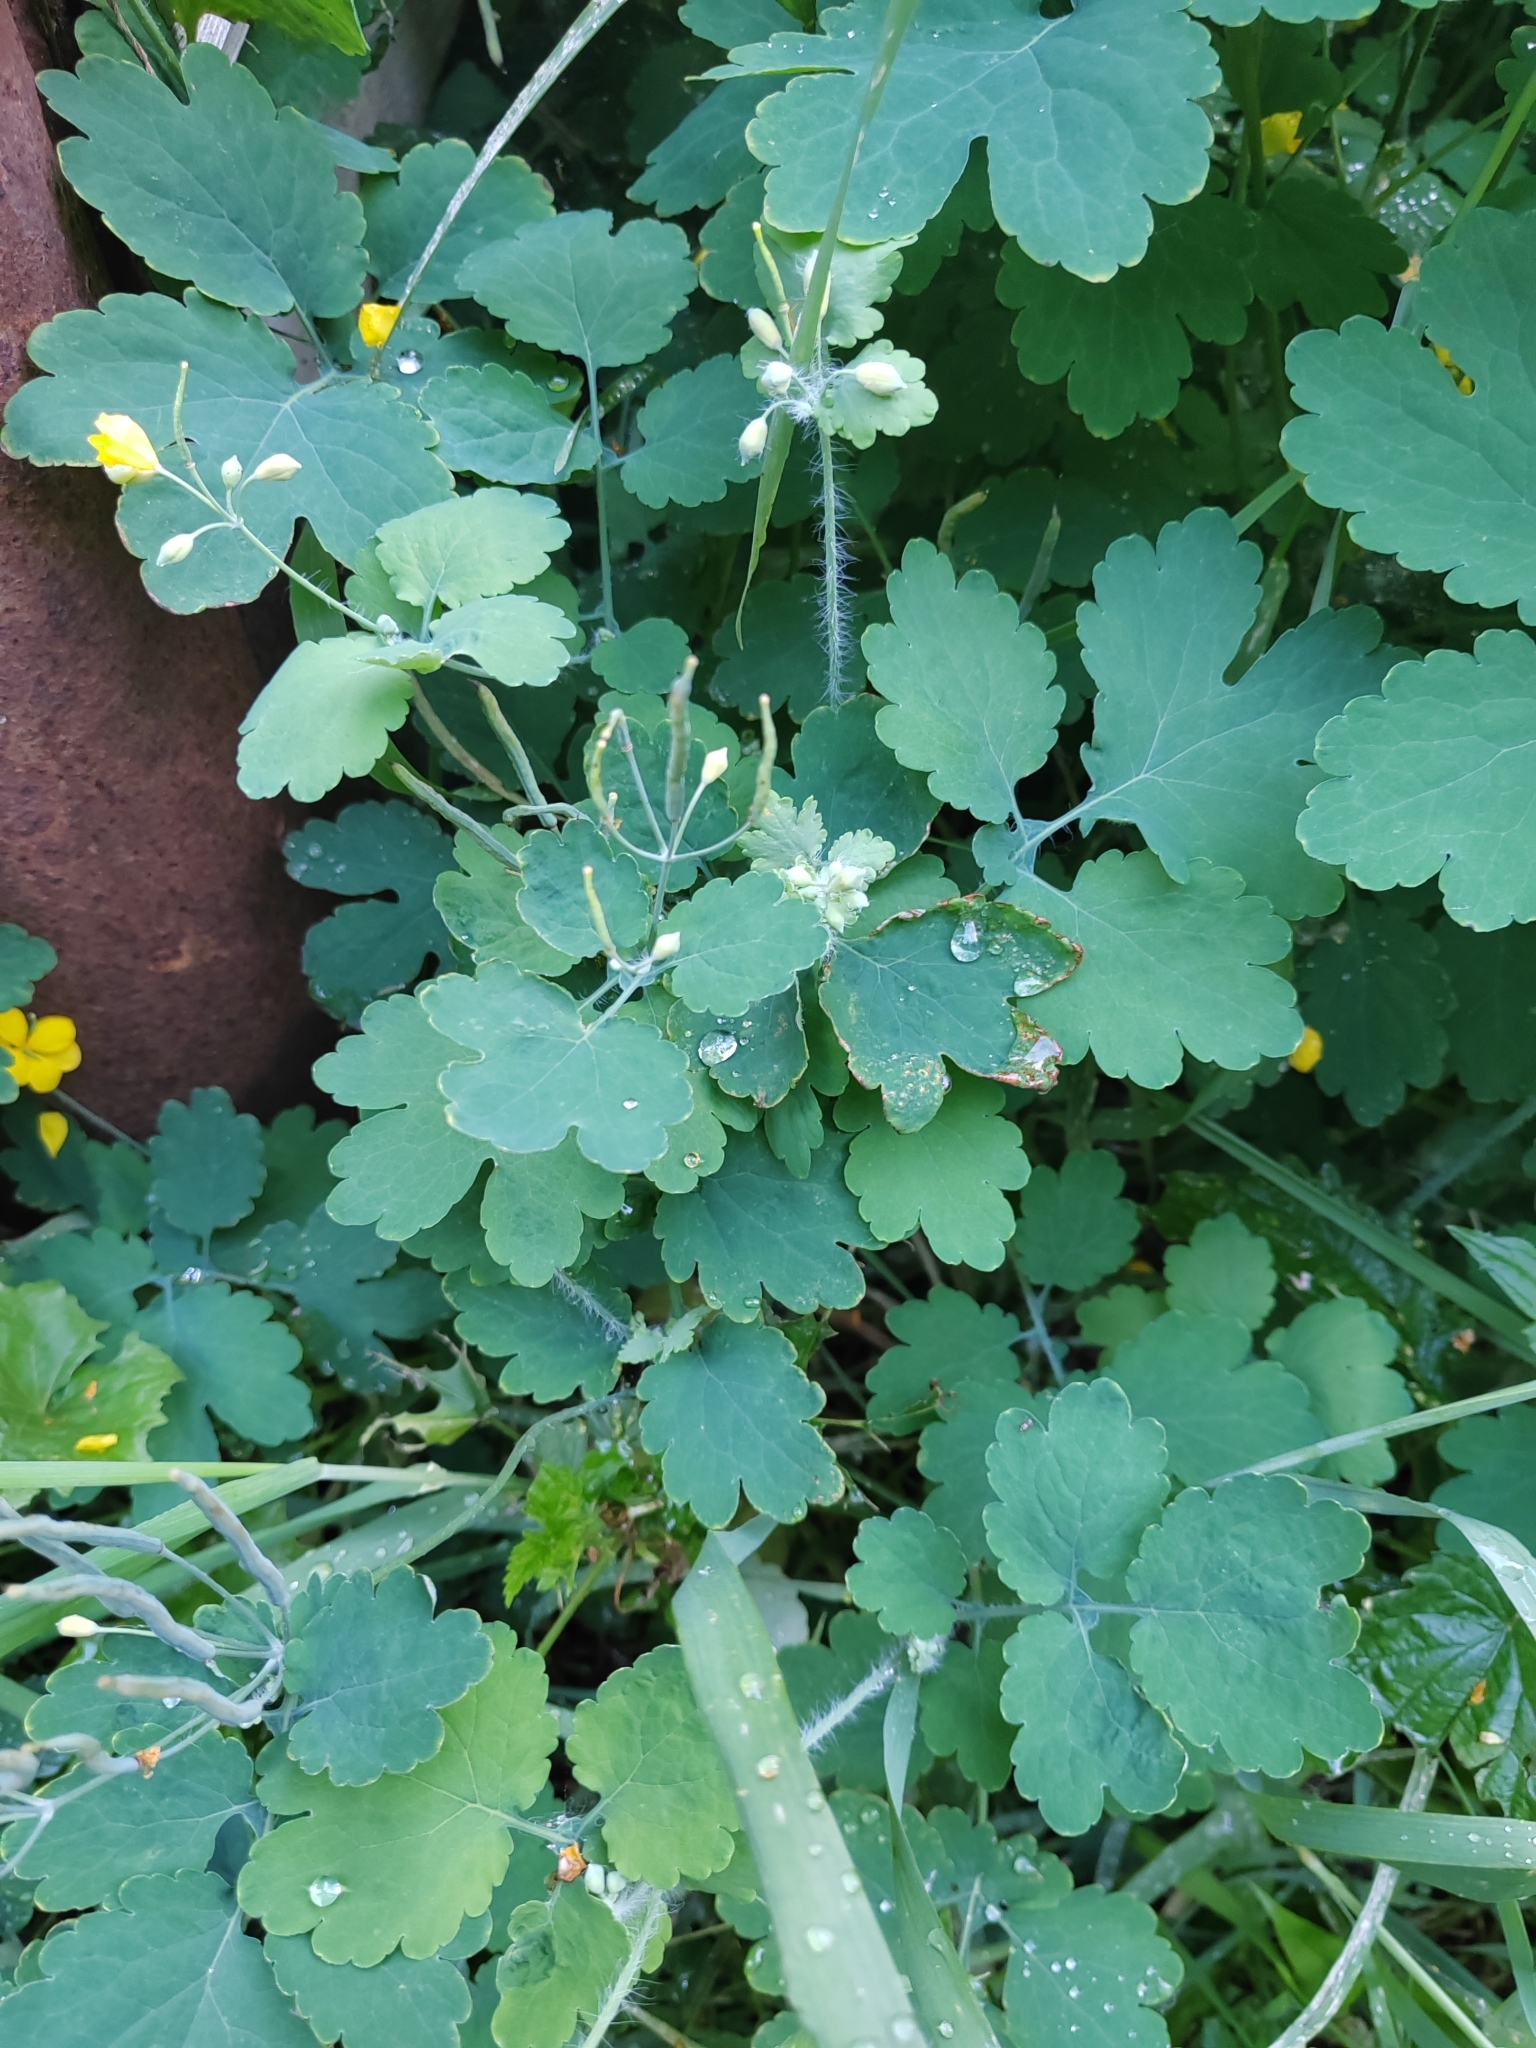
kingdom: Plantae
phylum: Tracheophyta
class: Magnoliopsida
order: Ranunculales
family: Papaveraceae
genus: Chelidonium
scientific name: Chelidonium majus
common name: Greater celandine
